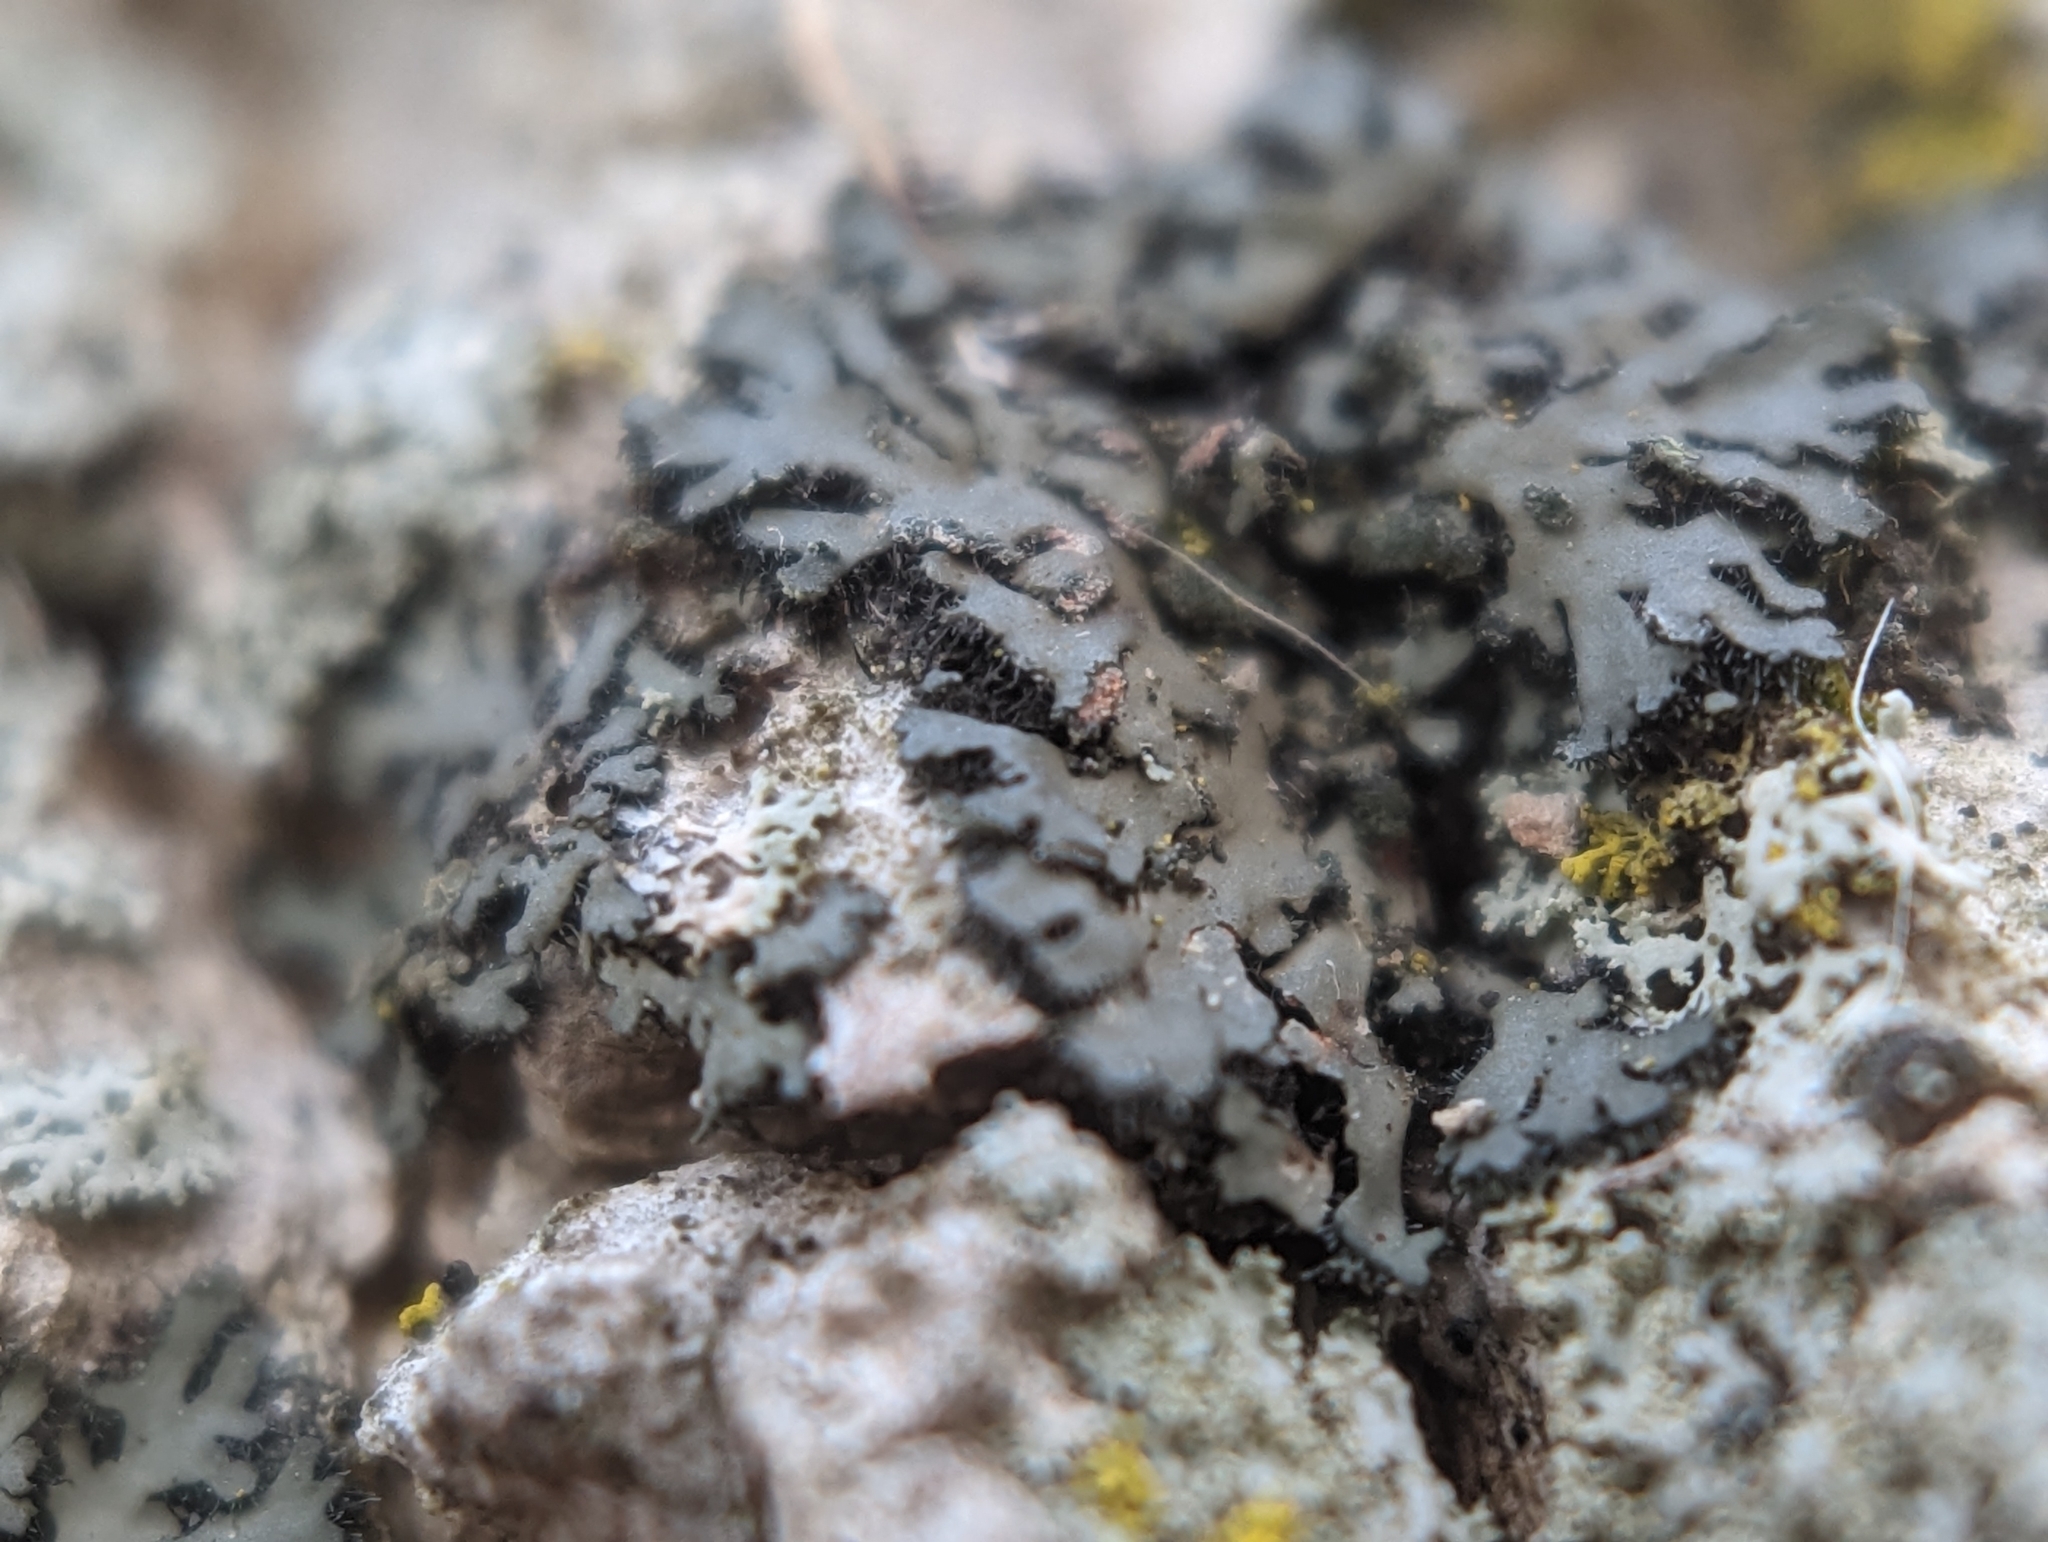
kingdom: Fungi
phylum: Ascomycota
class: Lecanoromycetes
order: Caliciales
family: Physciaceae
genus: Phaeophyscia
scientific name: Phaeophyscia rubropulchra
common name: Orange-cored shadow lichen
